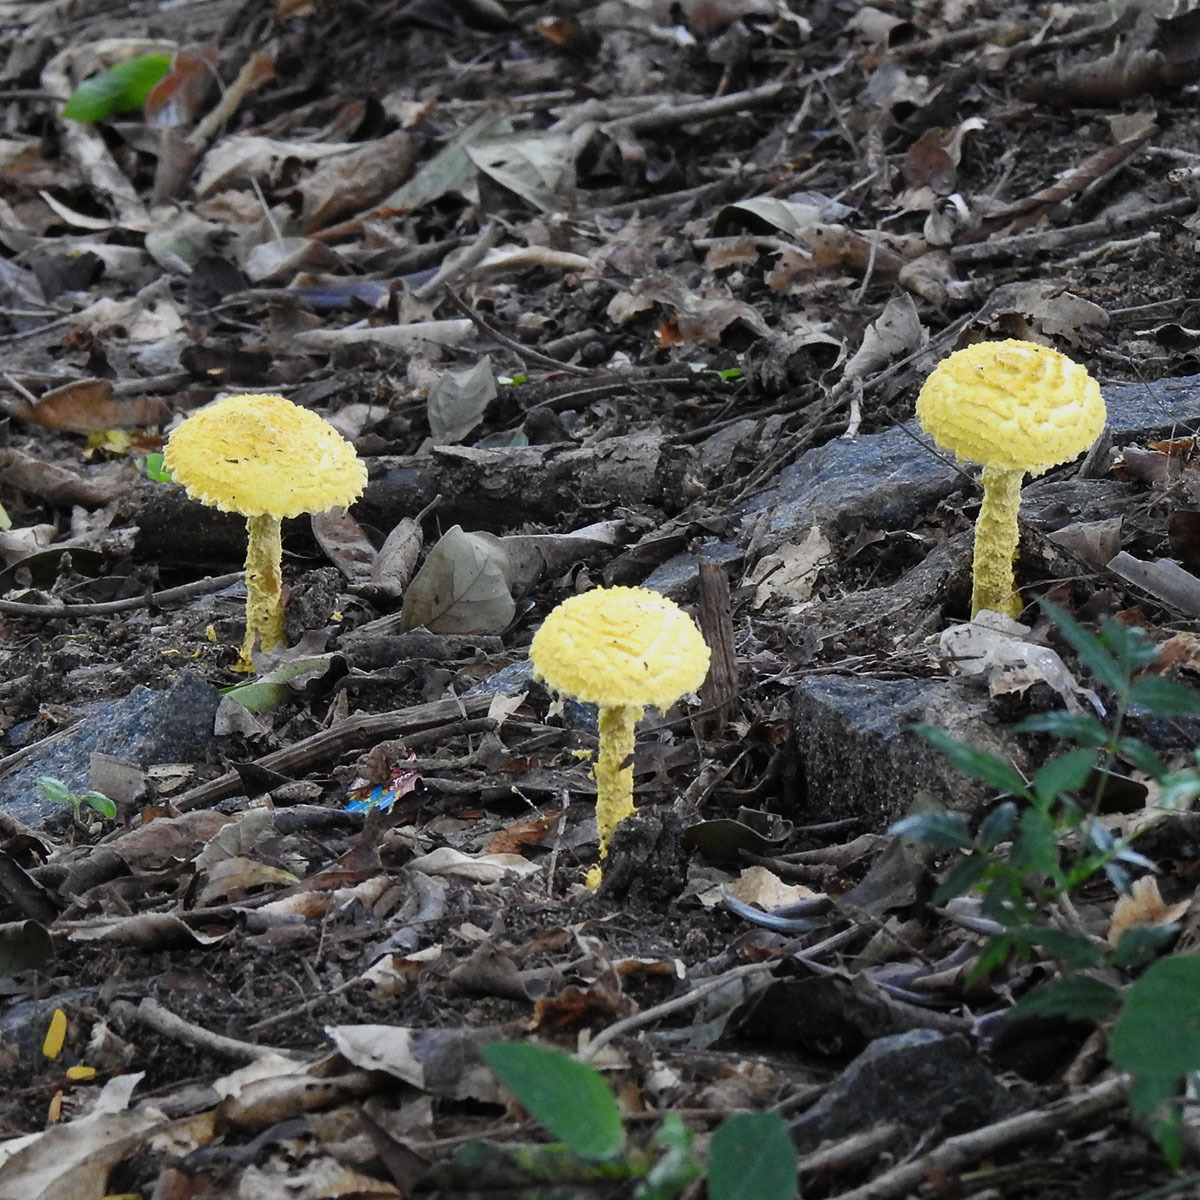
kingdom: Fungi
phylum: Basidiomycota
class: Agaricomycetes
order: Agaricales
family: Amanitaceae
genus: Aspidella
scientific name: Aspidella aureofloccosa
